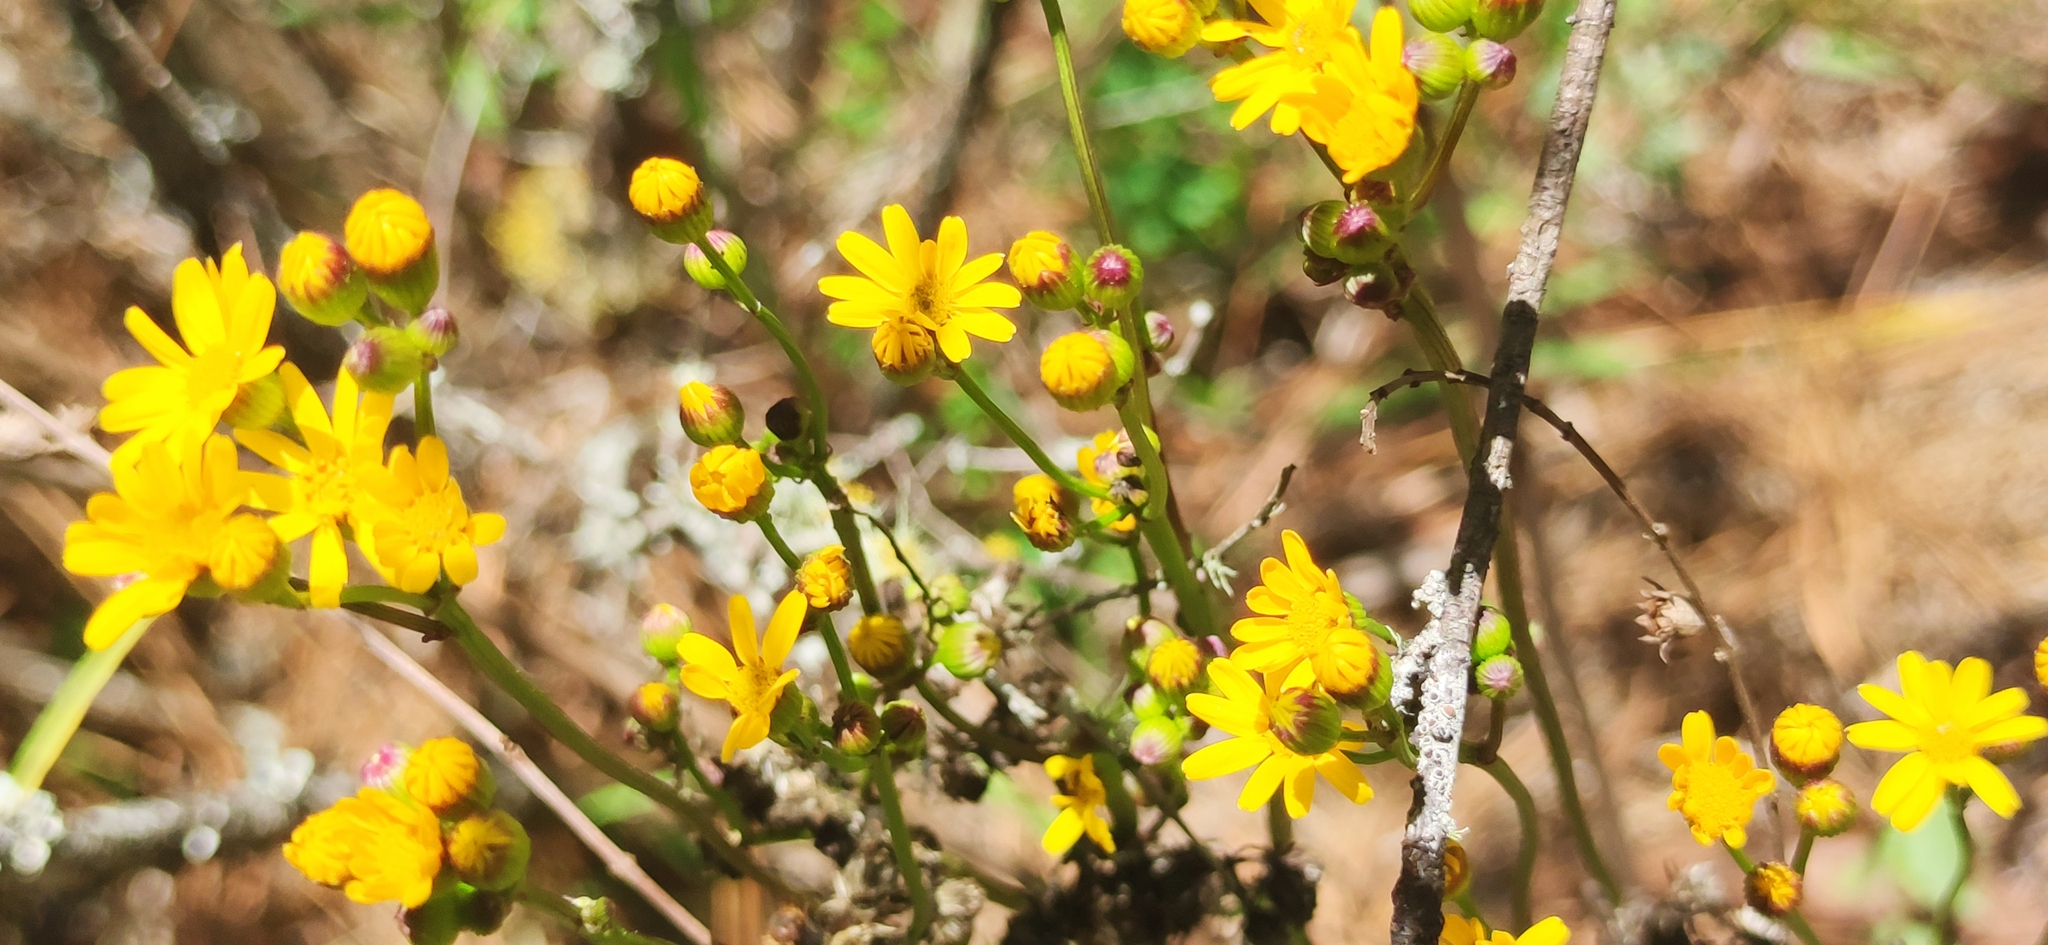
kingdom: Plantae
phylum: Tracheophyta
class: Magnoliopsida
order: Asterales
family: Asteraceae
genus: Packera
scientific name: Packera coahuilensis
